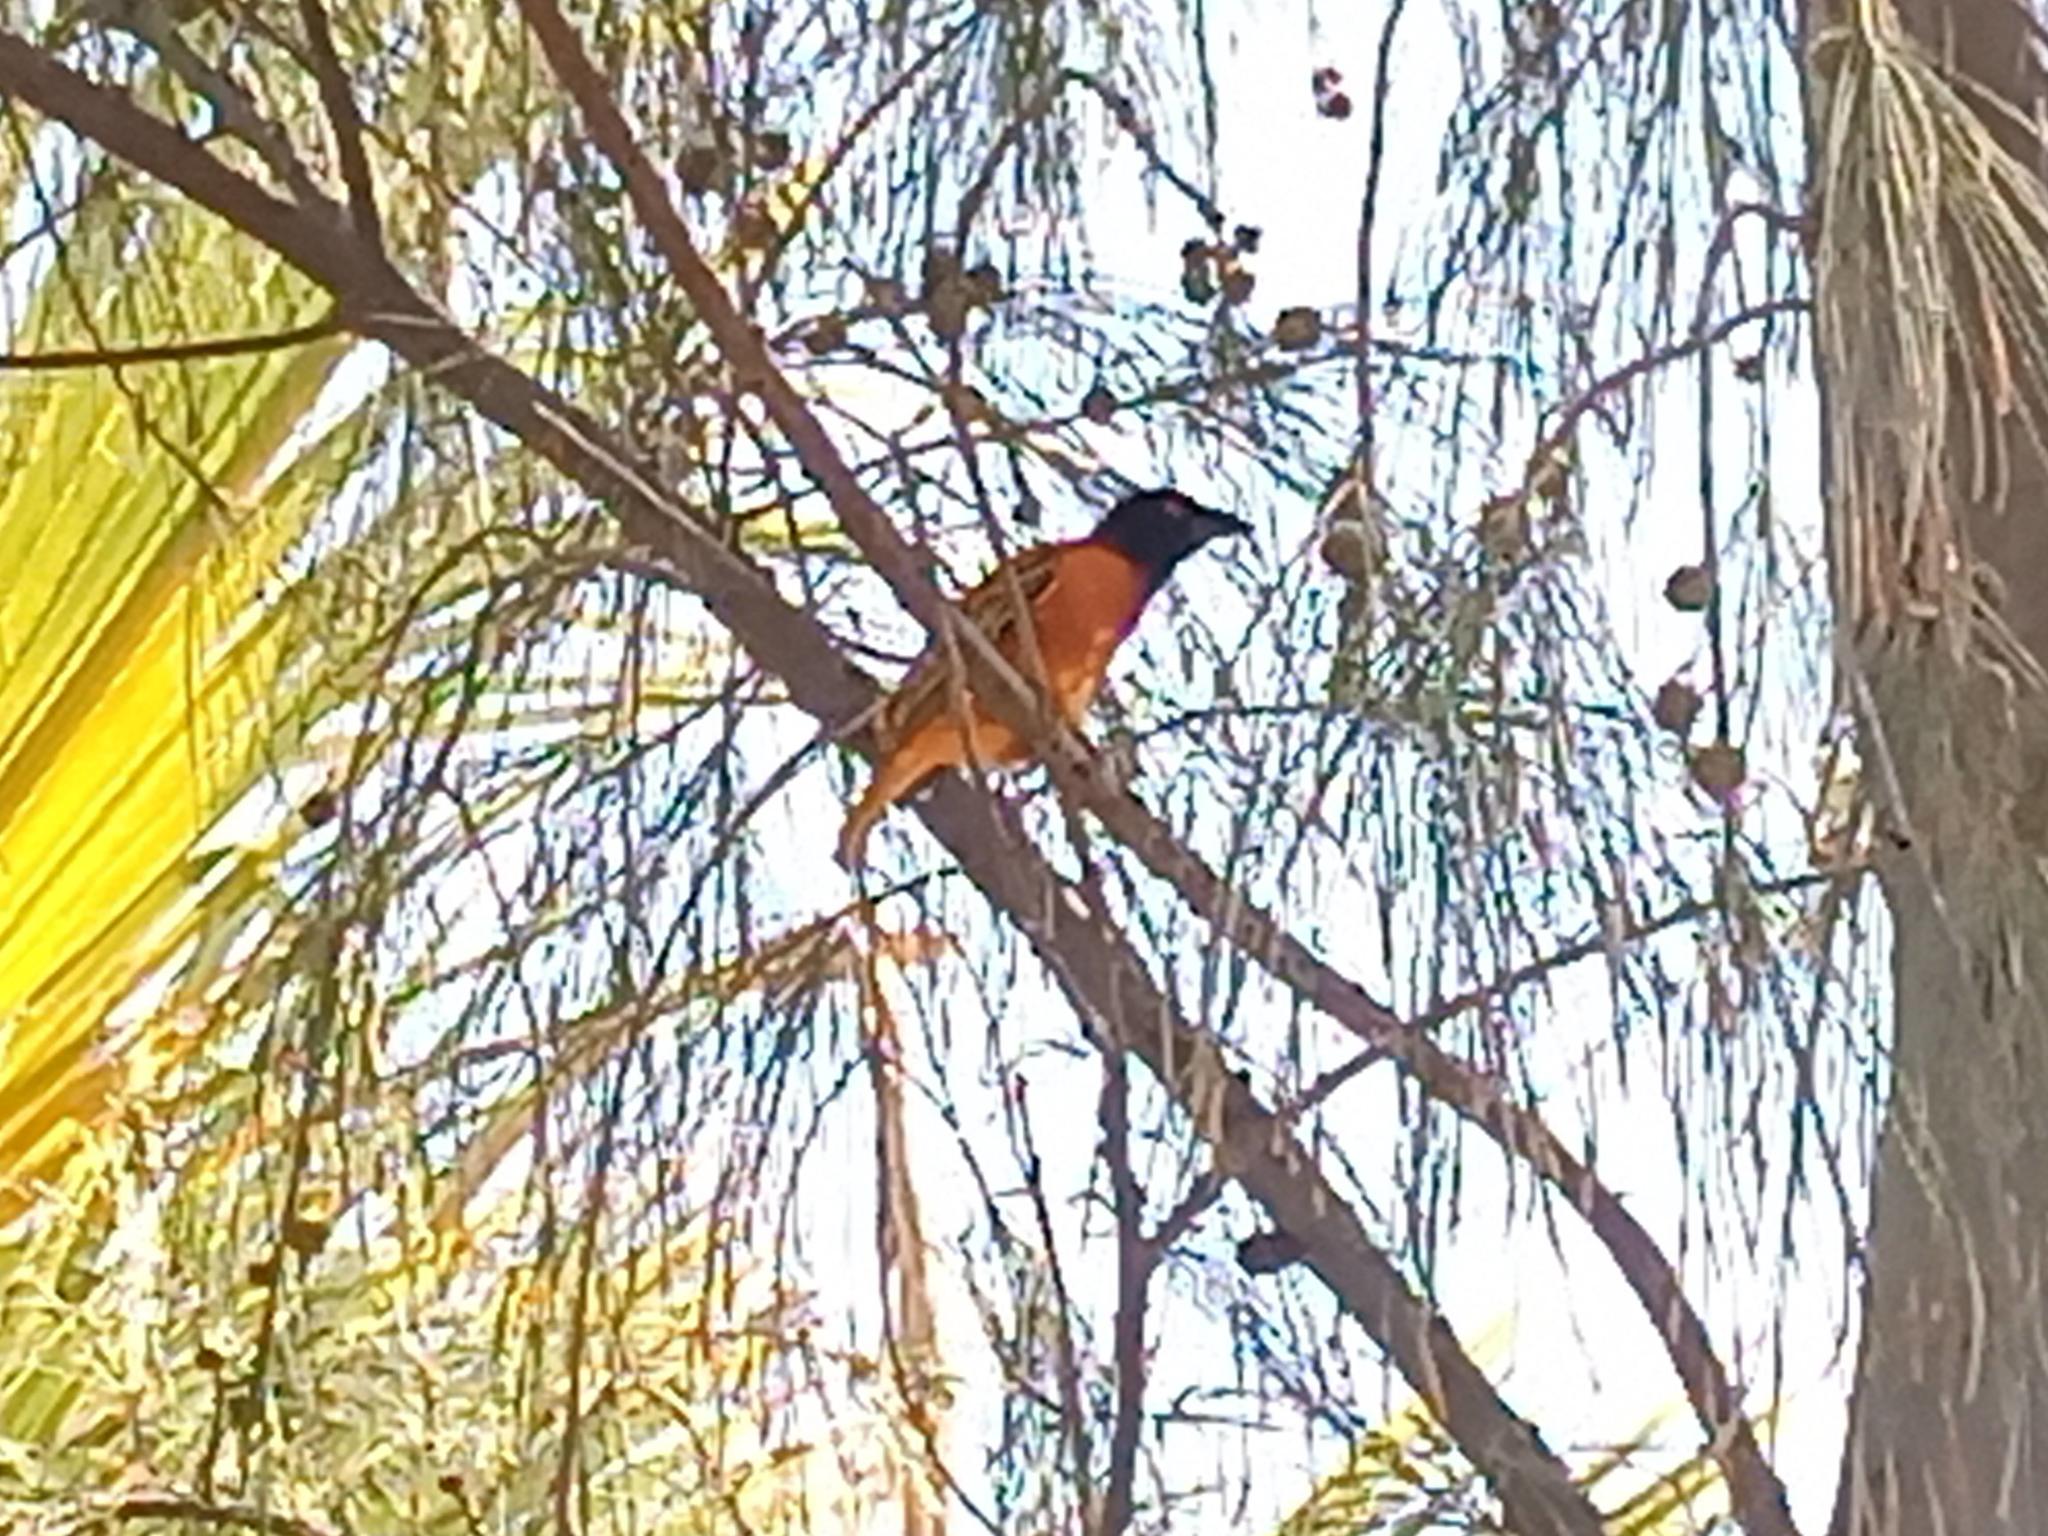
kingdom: Animalia
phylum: Chordata
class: Aves
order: Passeriformes
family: Ploceidae
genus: Ploceus
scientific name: Ploceus cucullatus
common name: Village weaver
